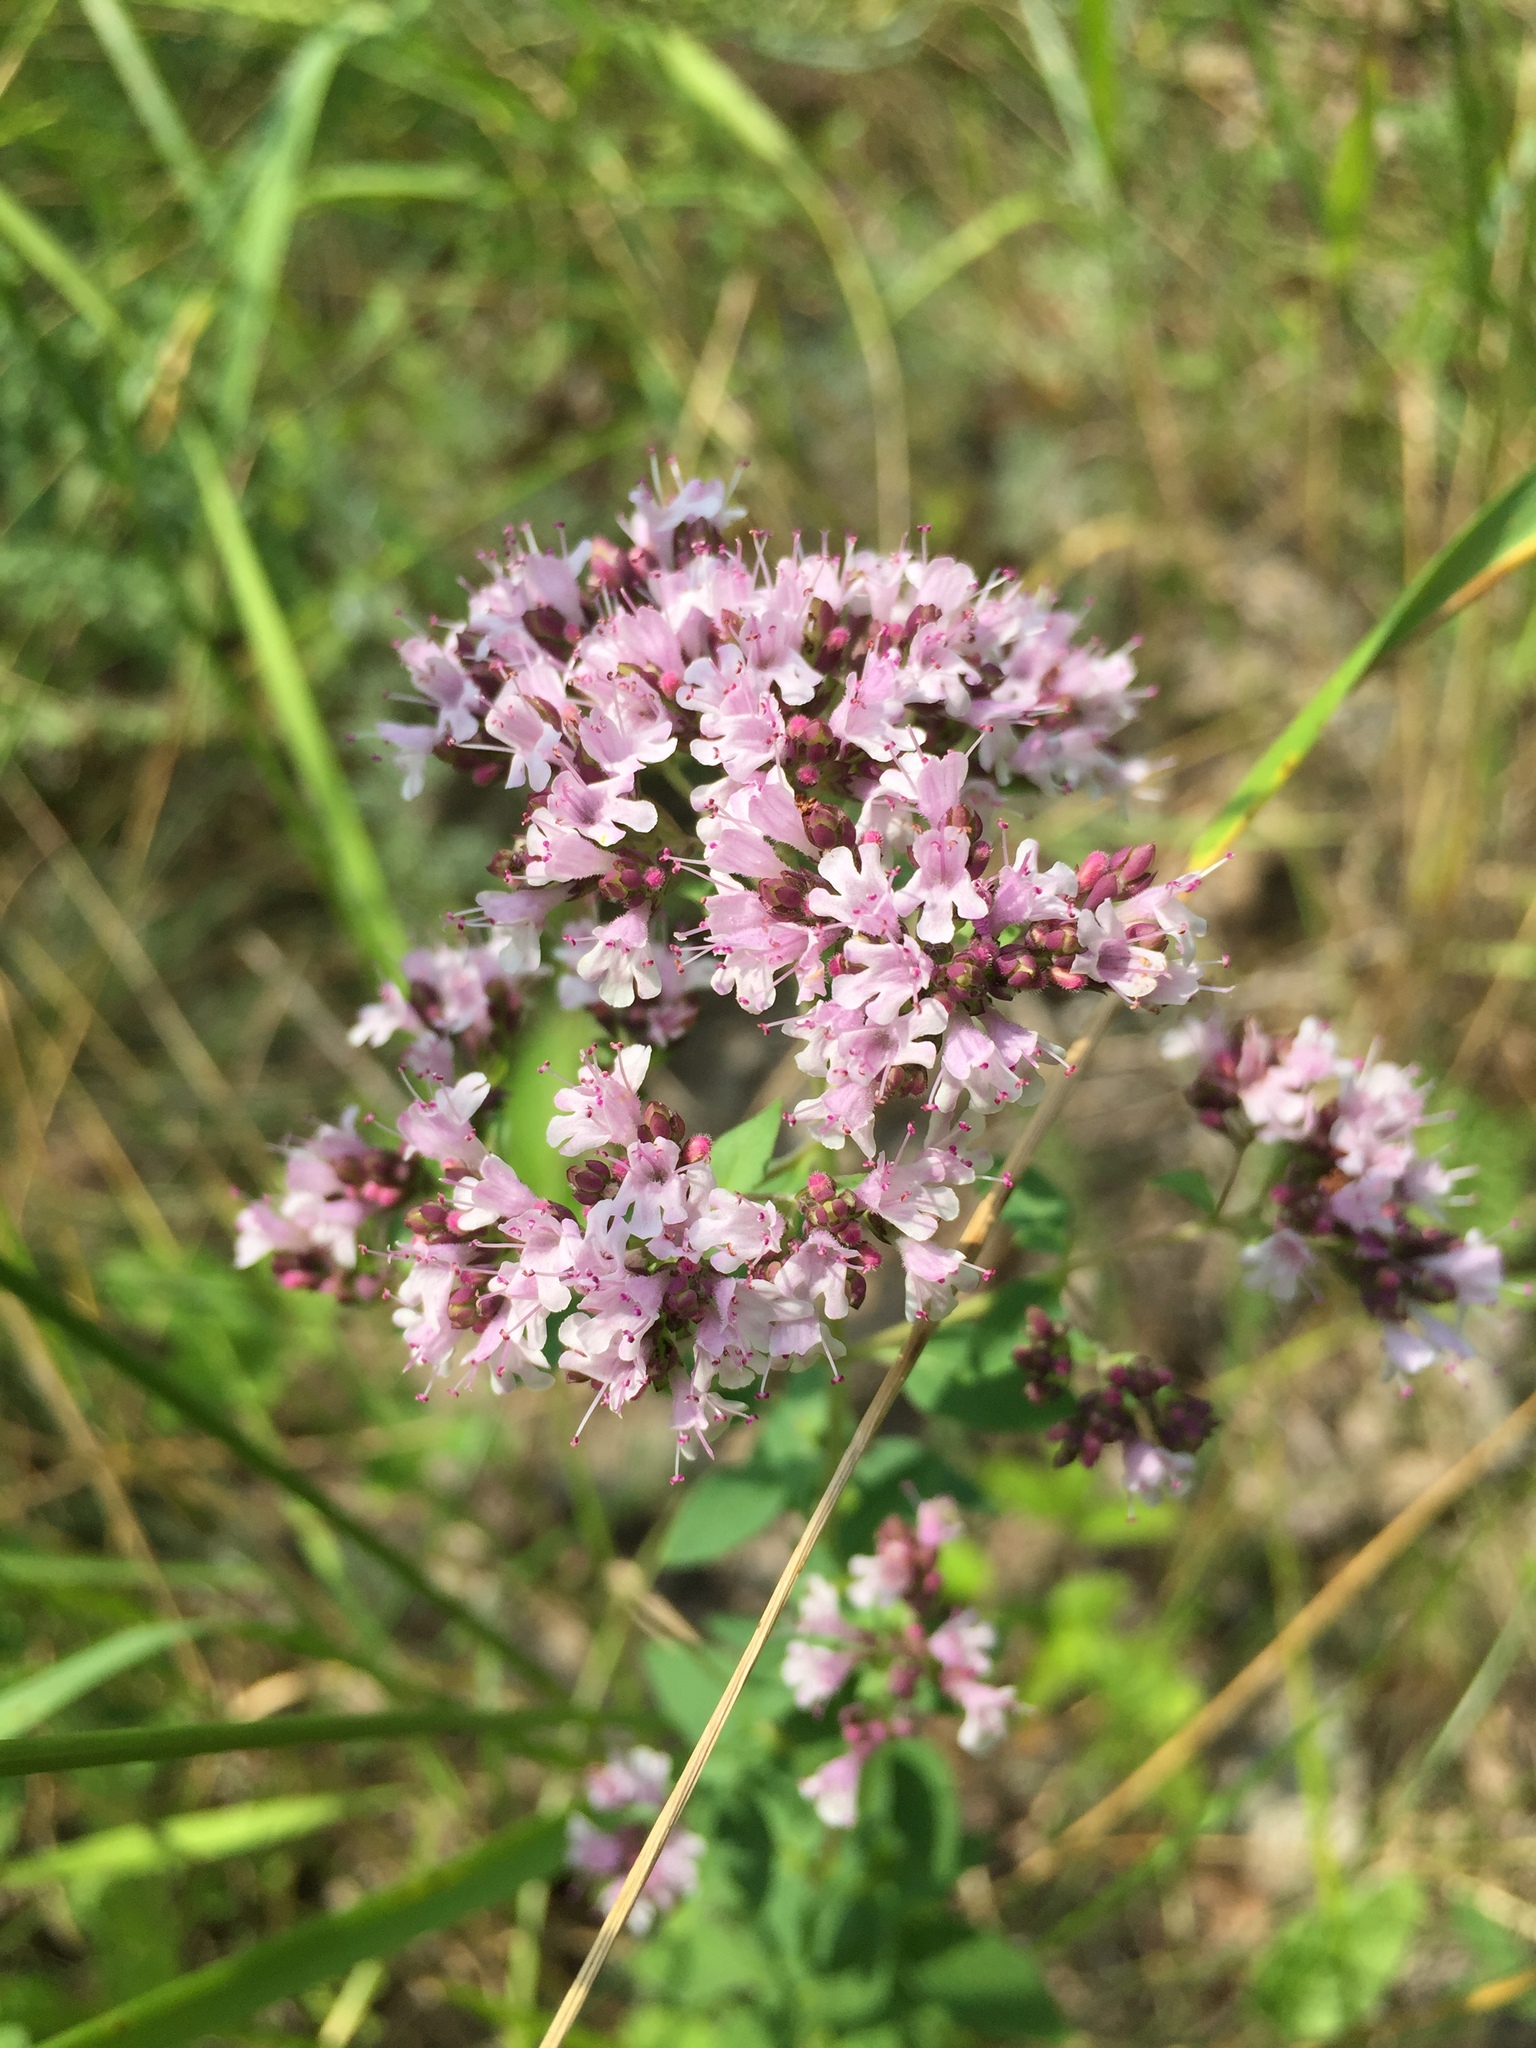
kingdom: Plantae
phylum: Tracheophyta
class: Magnoliopsida
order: Lamiales
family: Lamiaceae
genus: Origanum
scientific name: Origanum vulgare
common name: Wild marjoram
